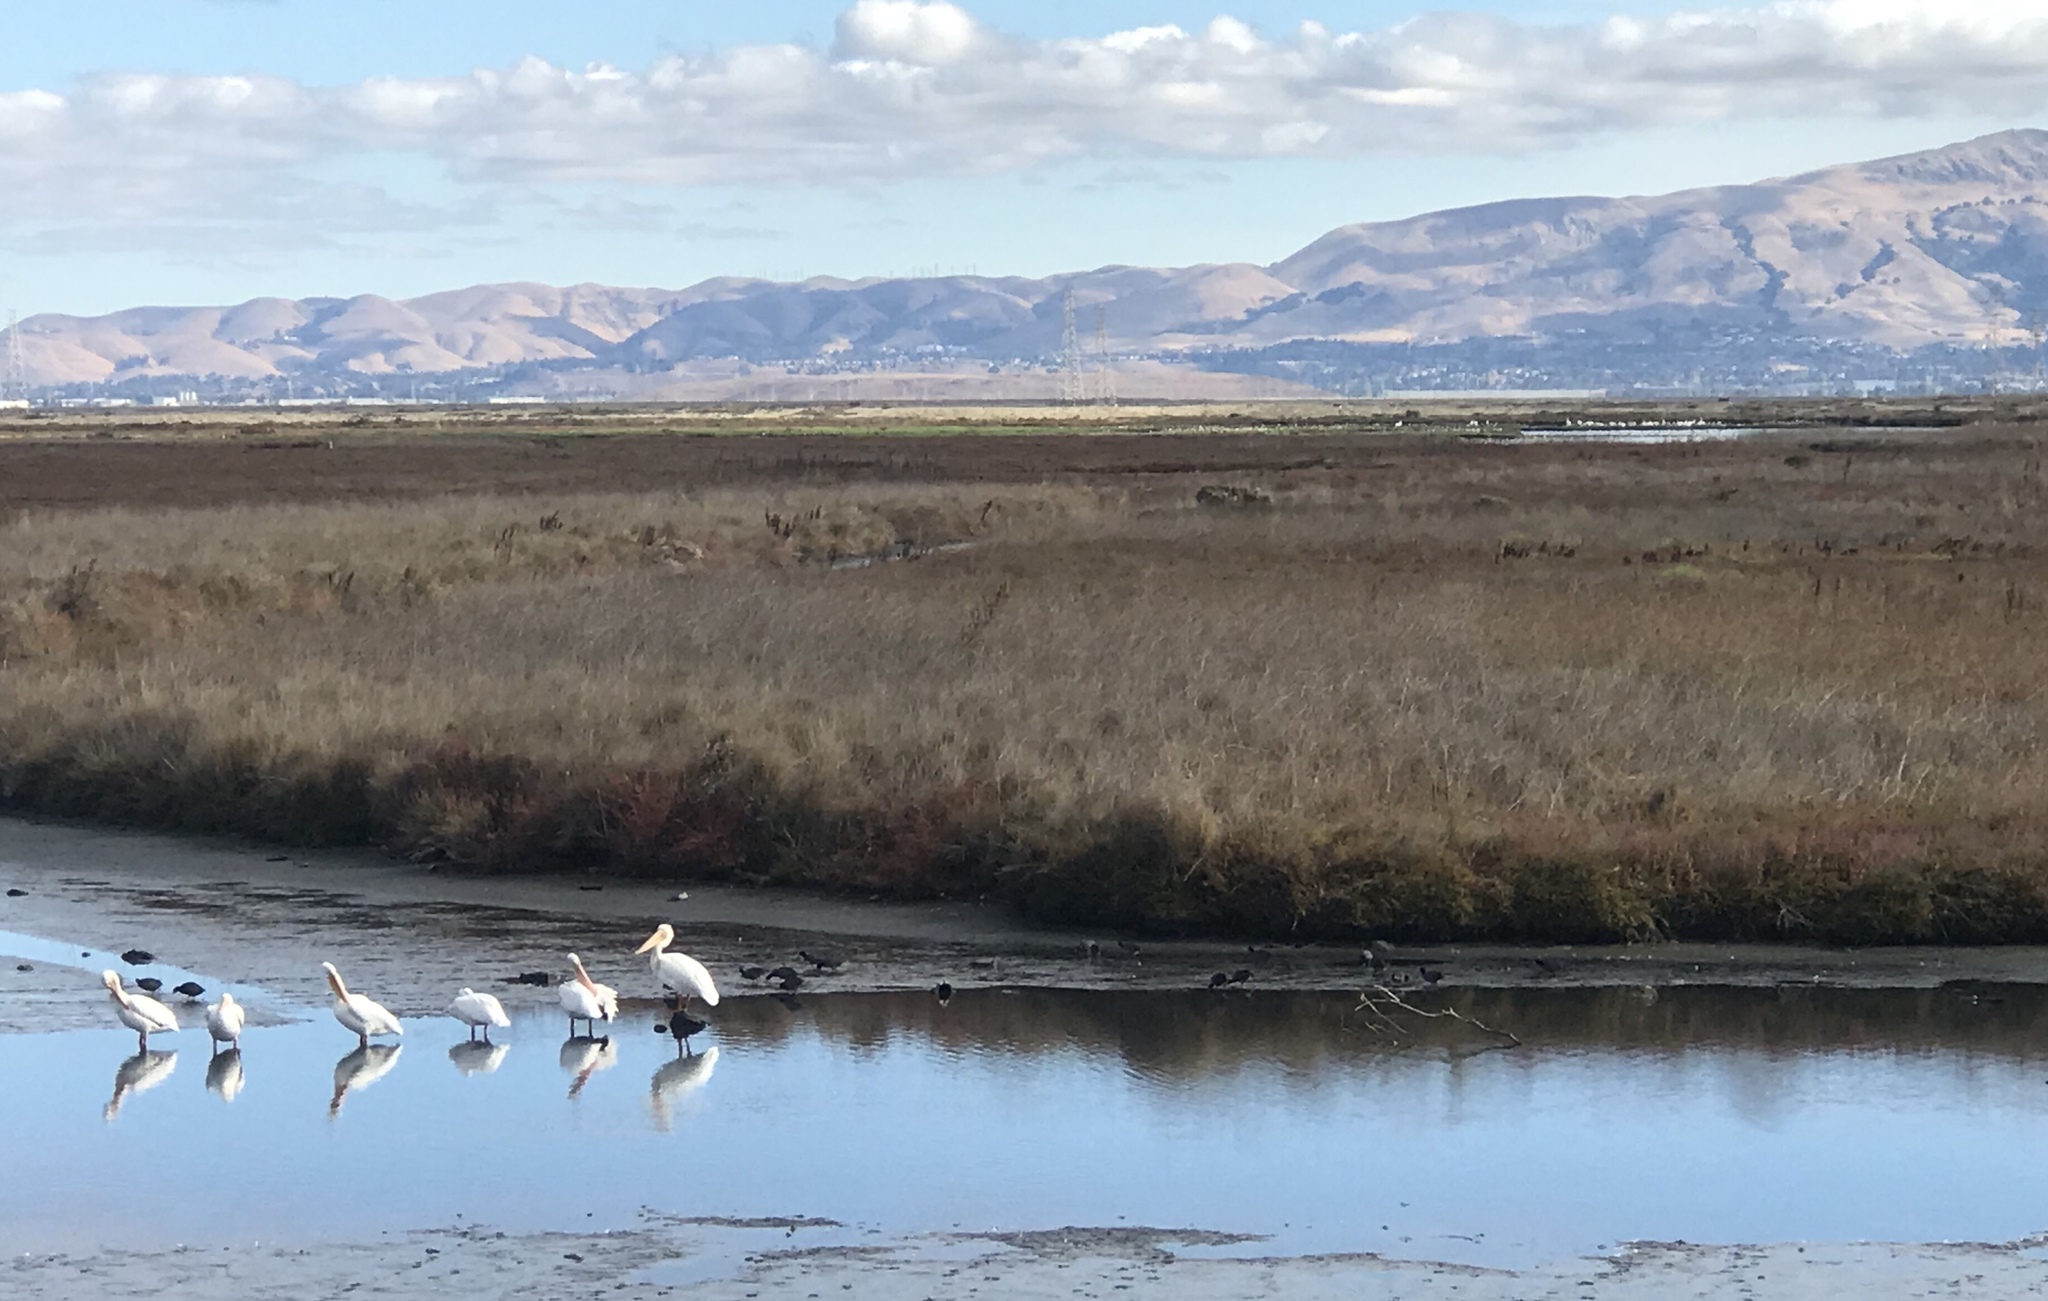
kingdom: Animalia
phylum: Chordata
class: Aves
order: Pelecaniformes
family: Pelecanidae
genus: Pelecanus
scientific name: Pelecanus erythrorhynchos
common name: American white pelican
